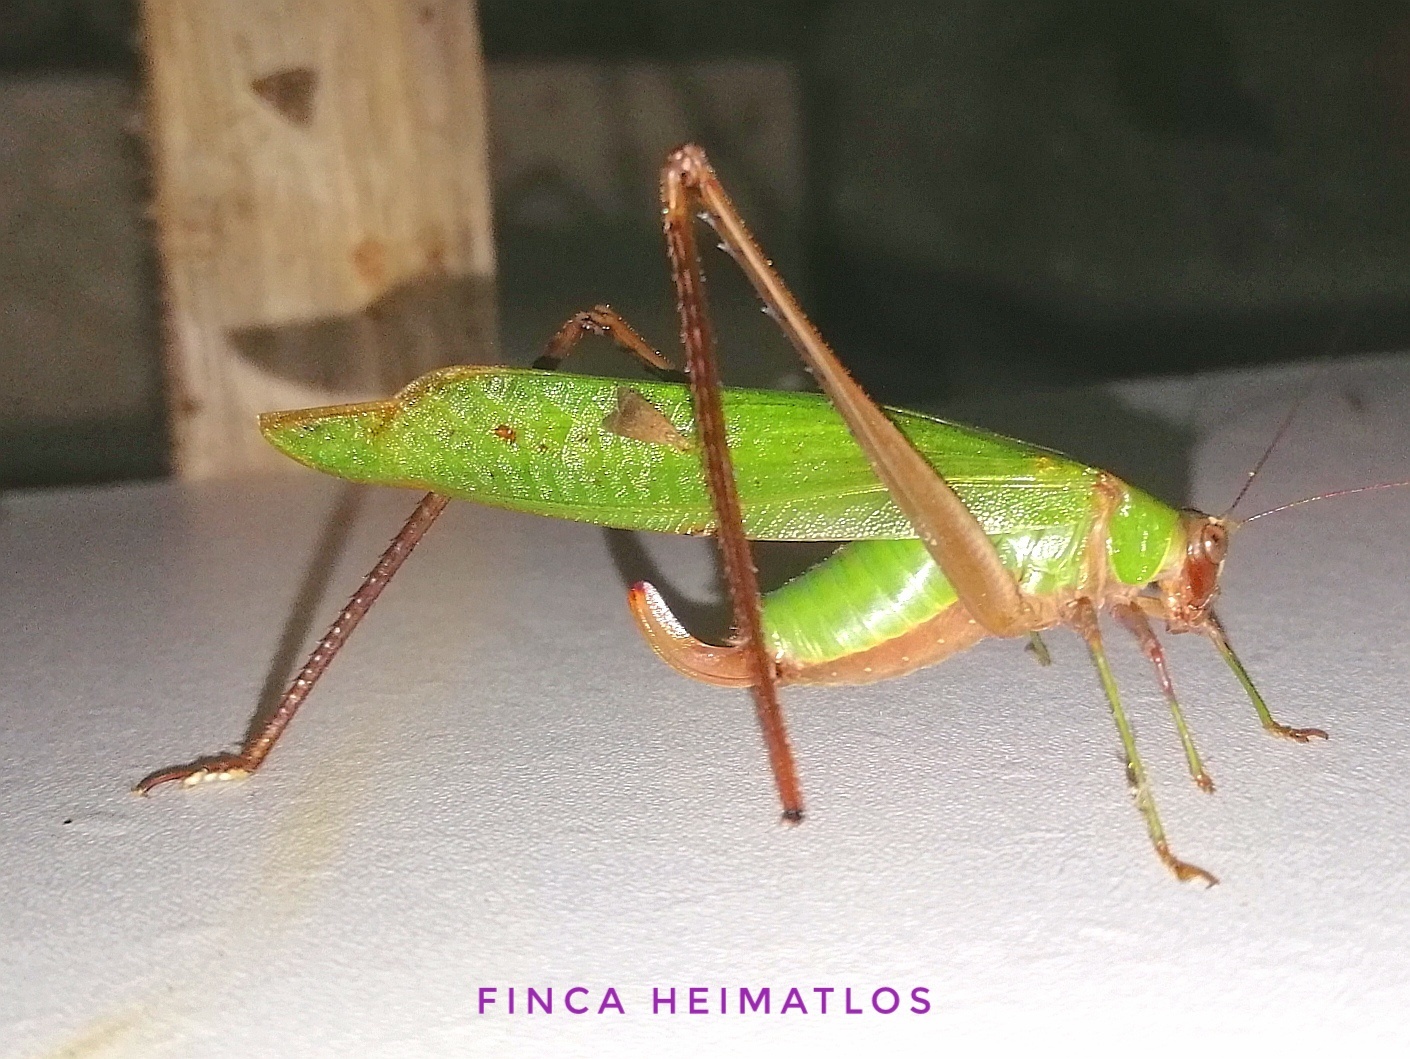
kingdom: Animalia
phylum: Arthropoda
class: Insecta
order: Orthoptera
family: Tettigoniidae
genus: Ceraia
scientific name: Ceraia tibialis
